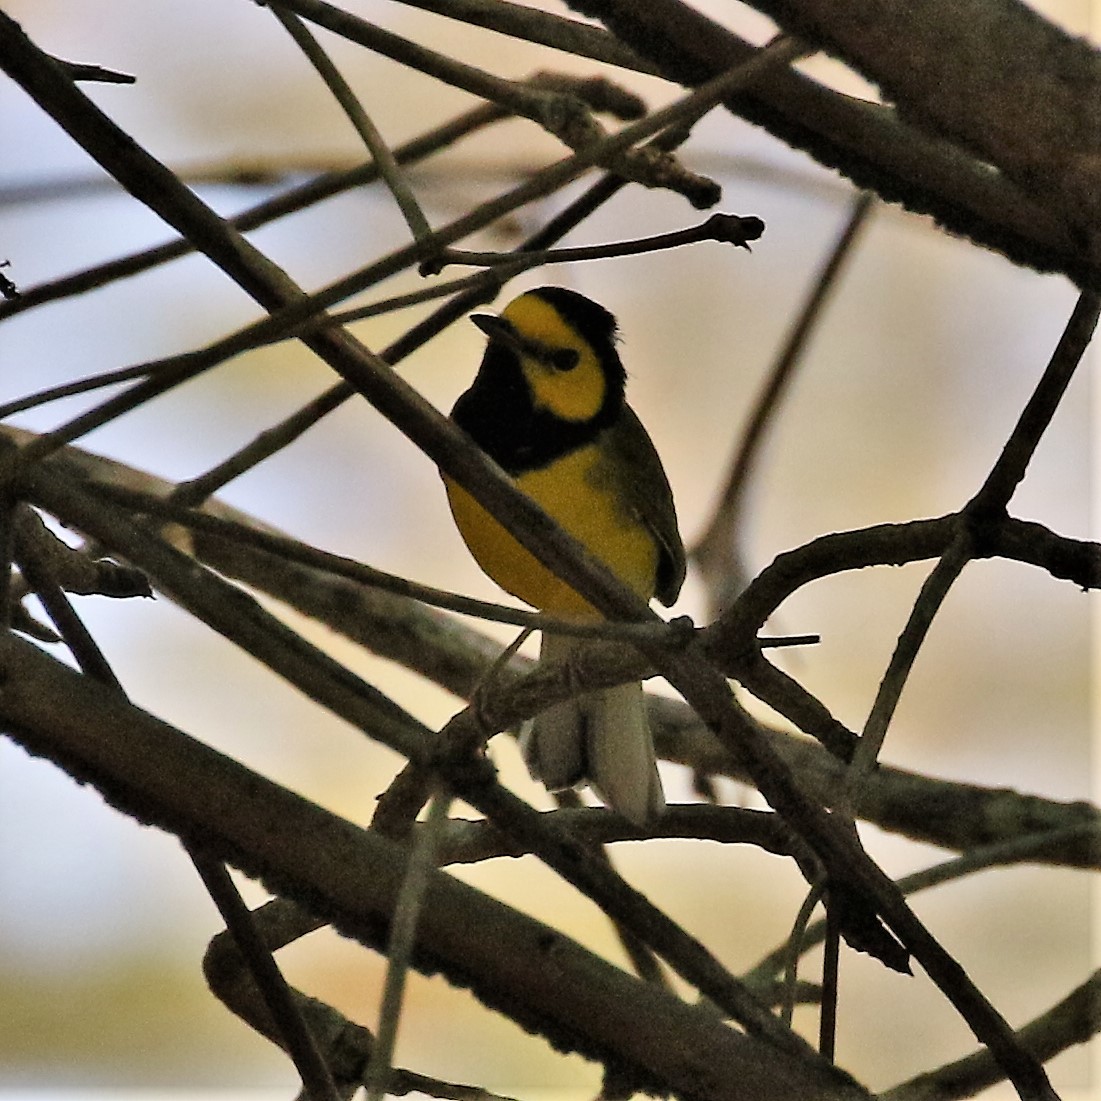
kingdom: Animalia
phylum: Chordata
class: Aves
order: Passeriformes
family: Parulidae
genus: Setophaga
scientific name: Setophaga citrina
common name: Hooded warbler
